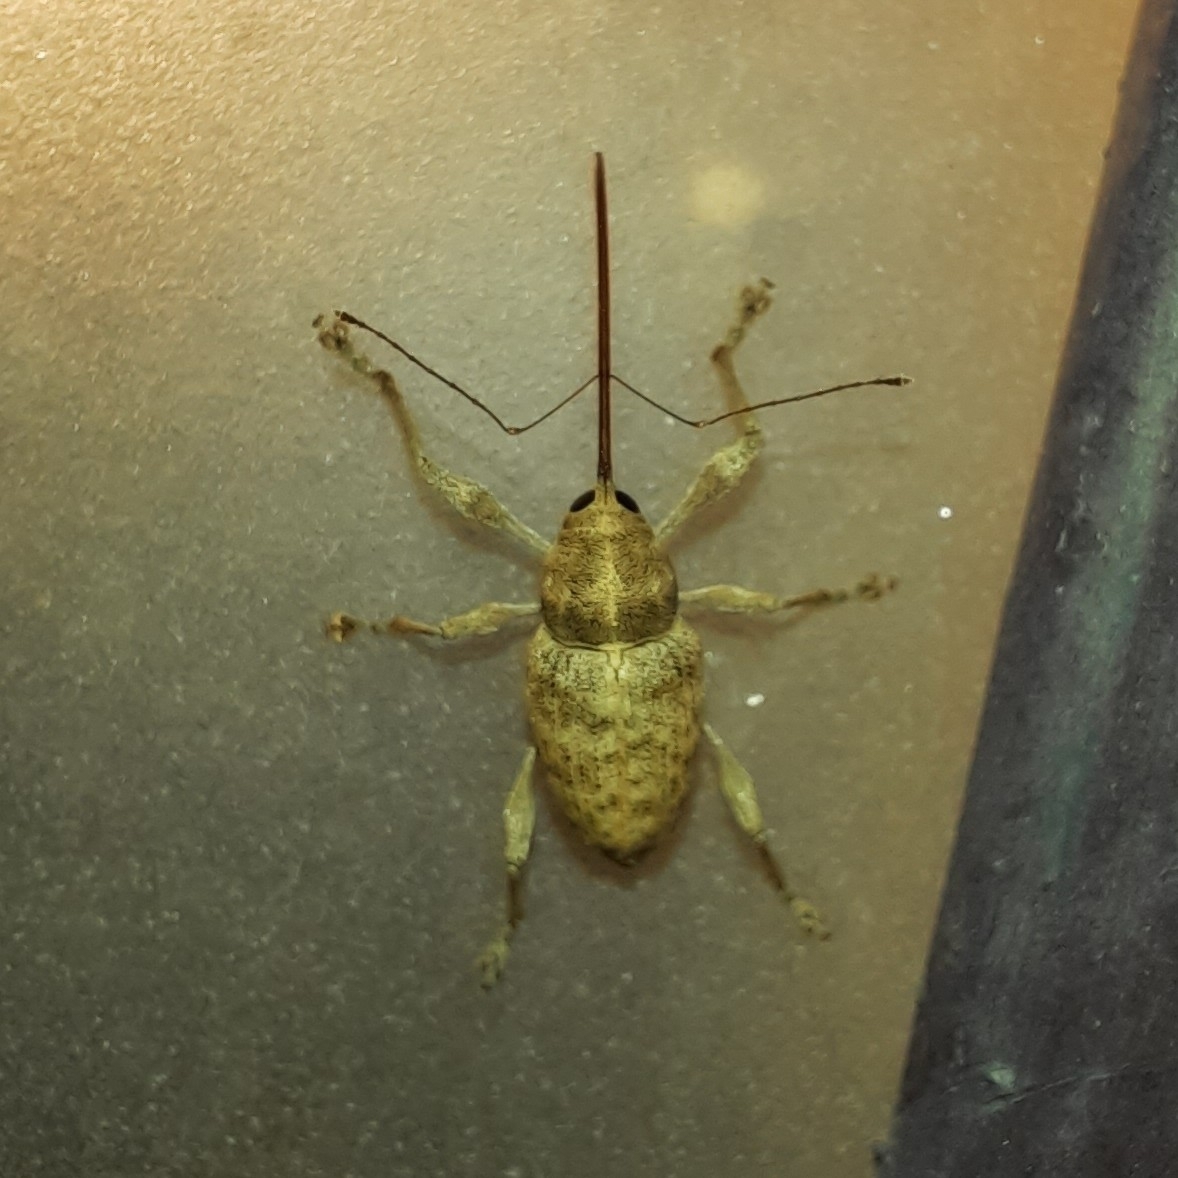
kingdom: Animalia
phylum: Arthropoda
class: Insecta
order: Coleoptera
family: Curculionidae
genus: Curculio
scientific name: Curculio elephas
